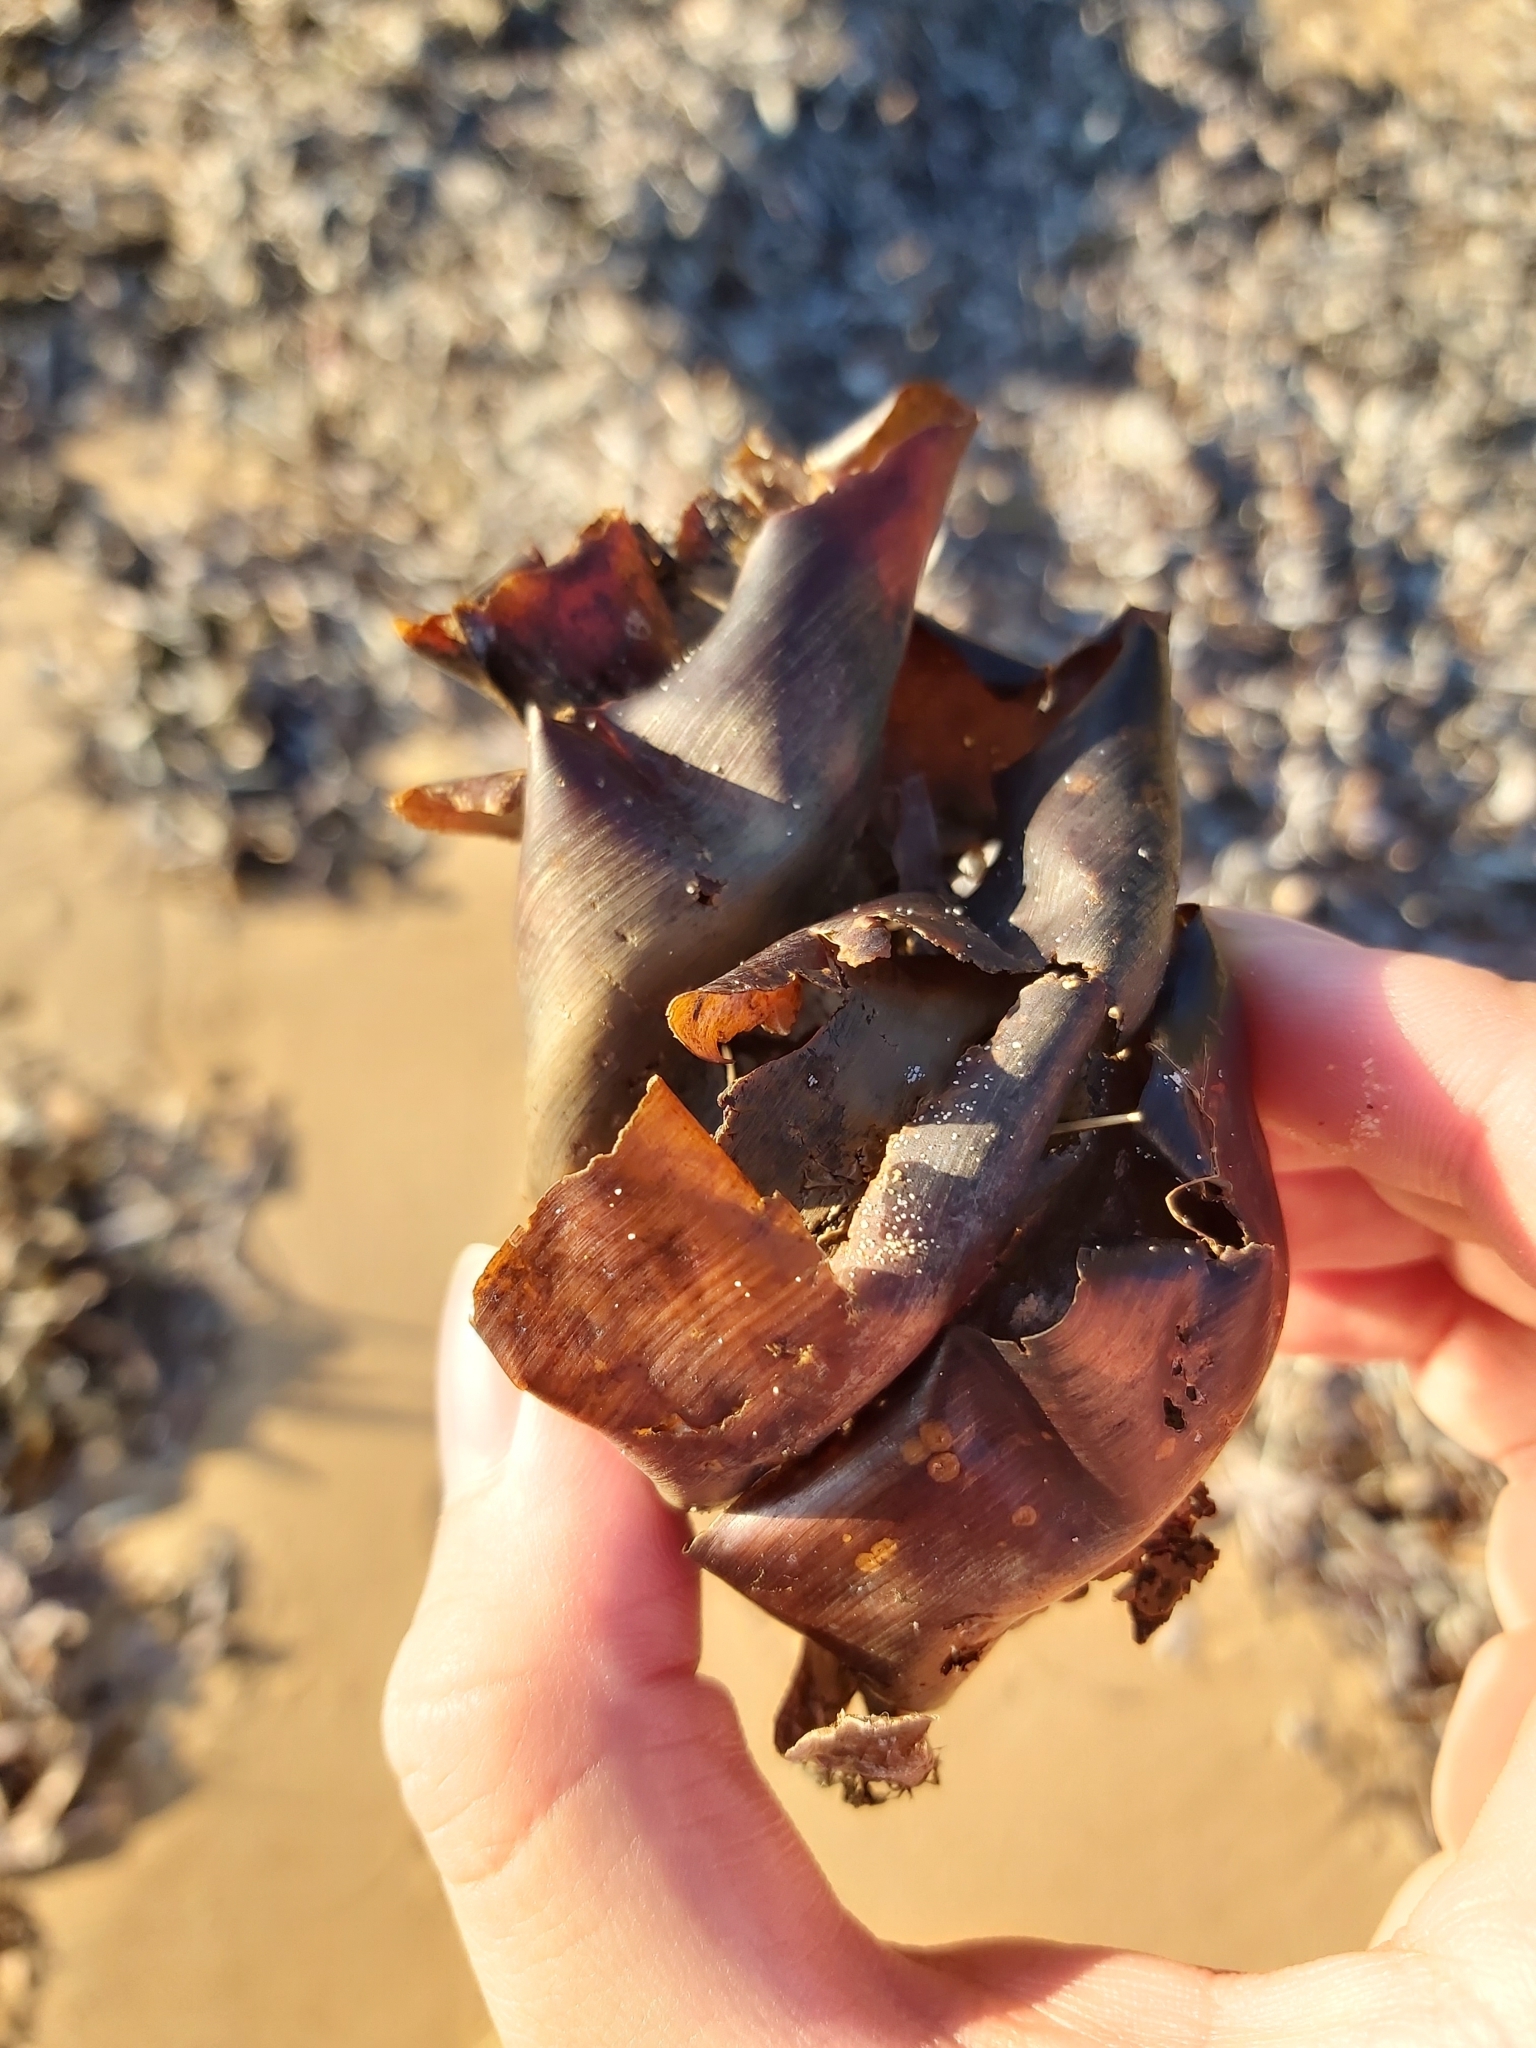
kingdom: Animalia
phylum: Chordata
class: Elasmobranchii
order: Heterodontiformes
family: Heterodontidae
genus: Heterodontus
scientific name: Heterodontus portusjacksoni
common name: Port jackson shark
